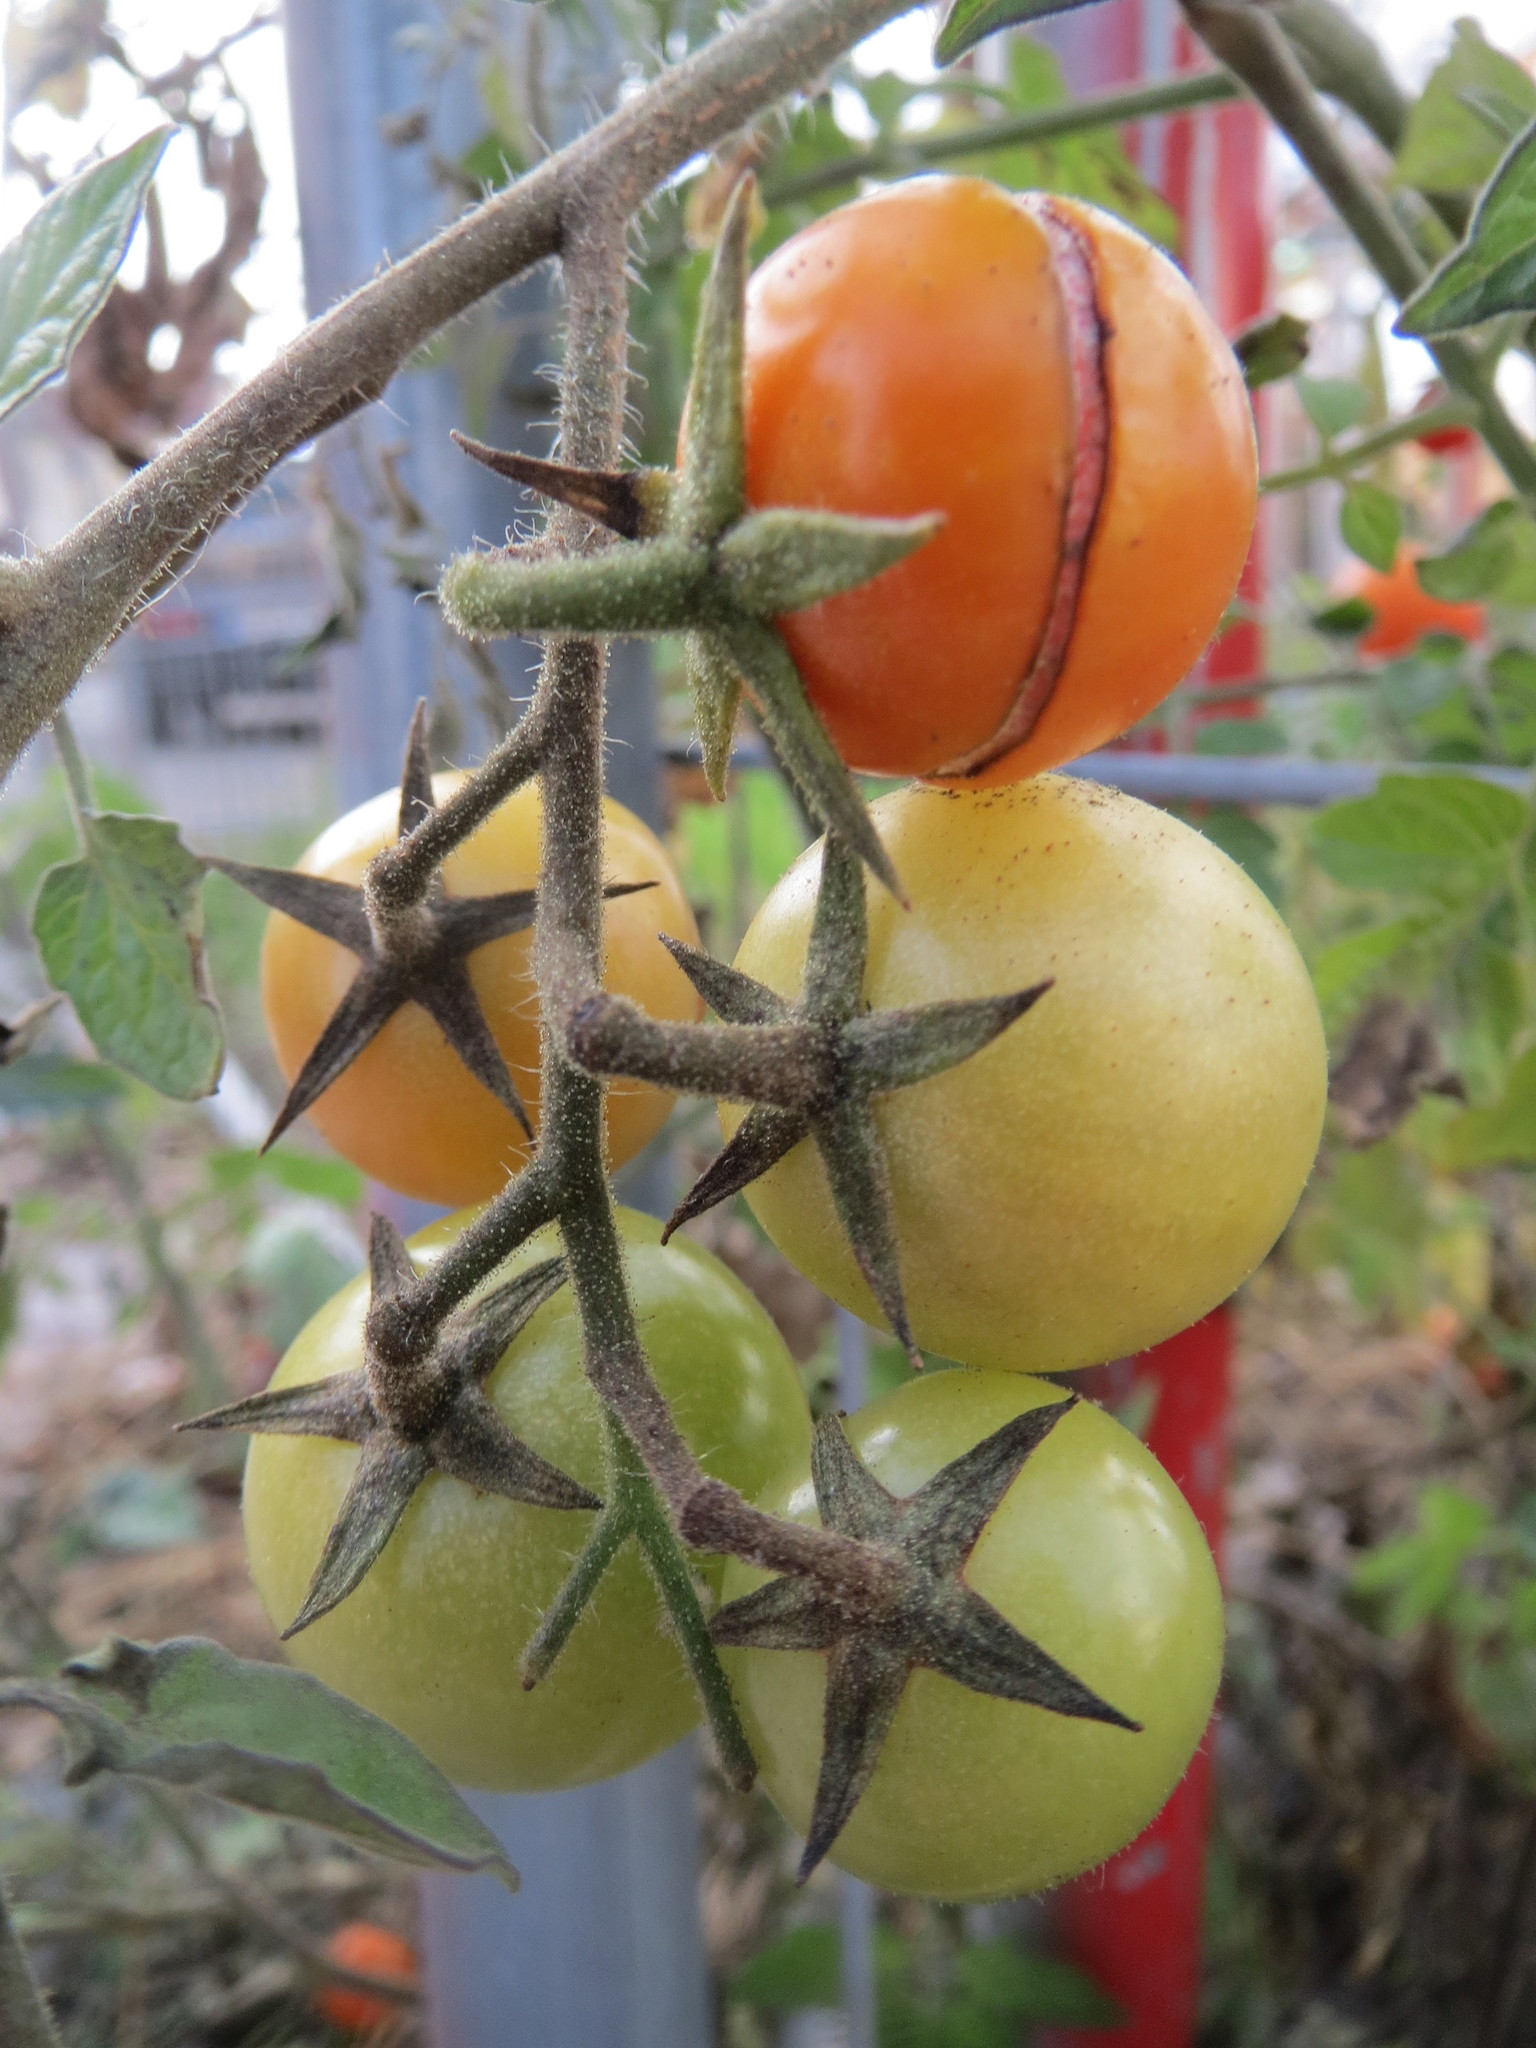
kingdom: Plantae
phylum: Tracheophyta
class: Magnoliopsida
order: Solanales
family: Solanaceae
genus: Solanum
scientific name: Solanum lycopersicum
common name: Garden tomato
